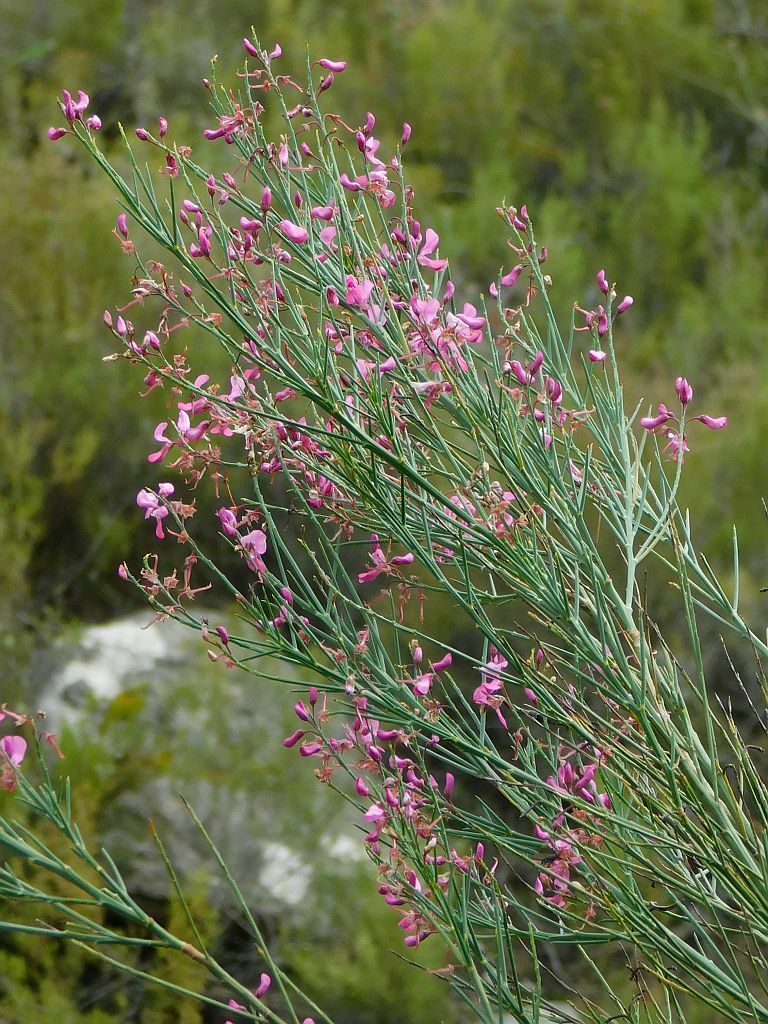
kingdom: Plantae
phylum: Tracheophyta
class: Magnoliopsida
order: Fabales
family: Fabaceae
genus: Indigofera
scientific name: Indigofera filifolia
